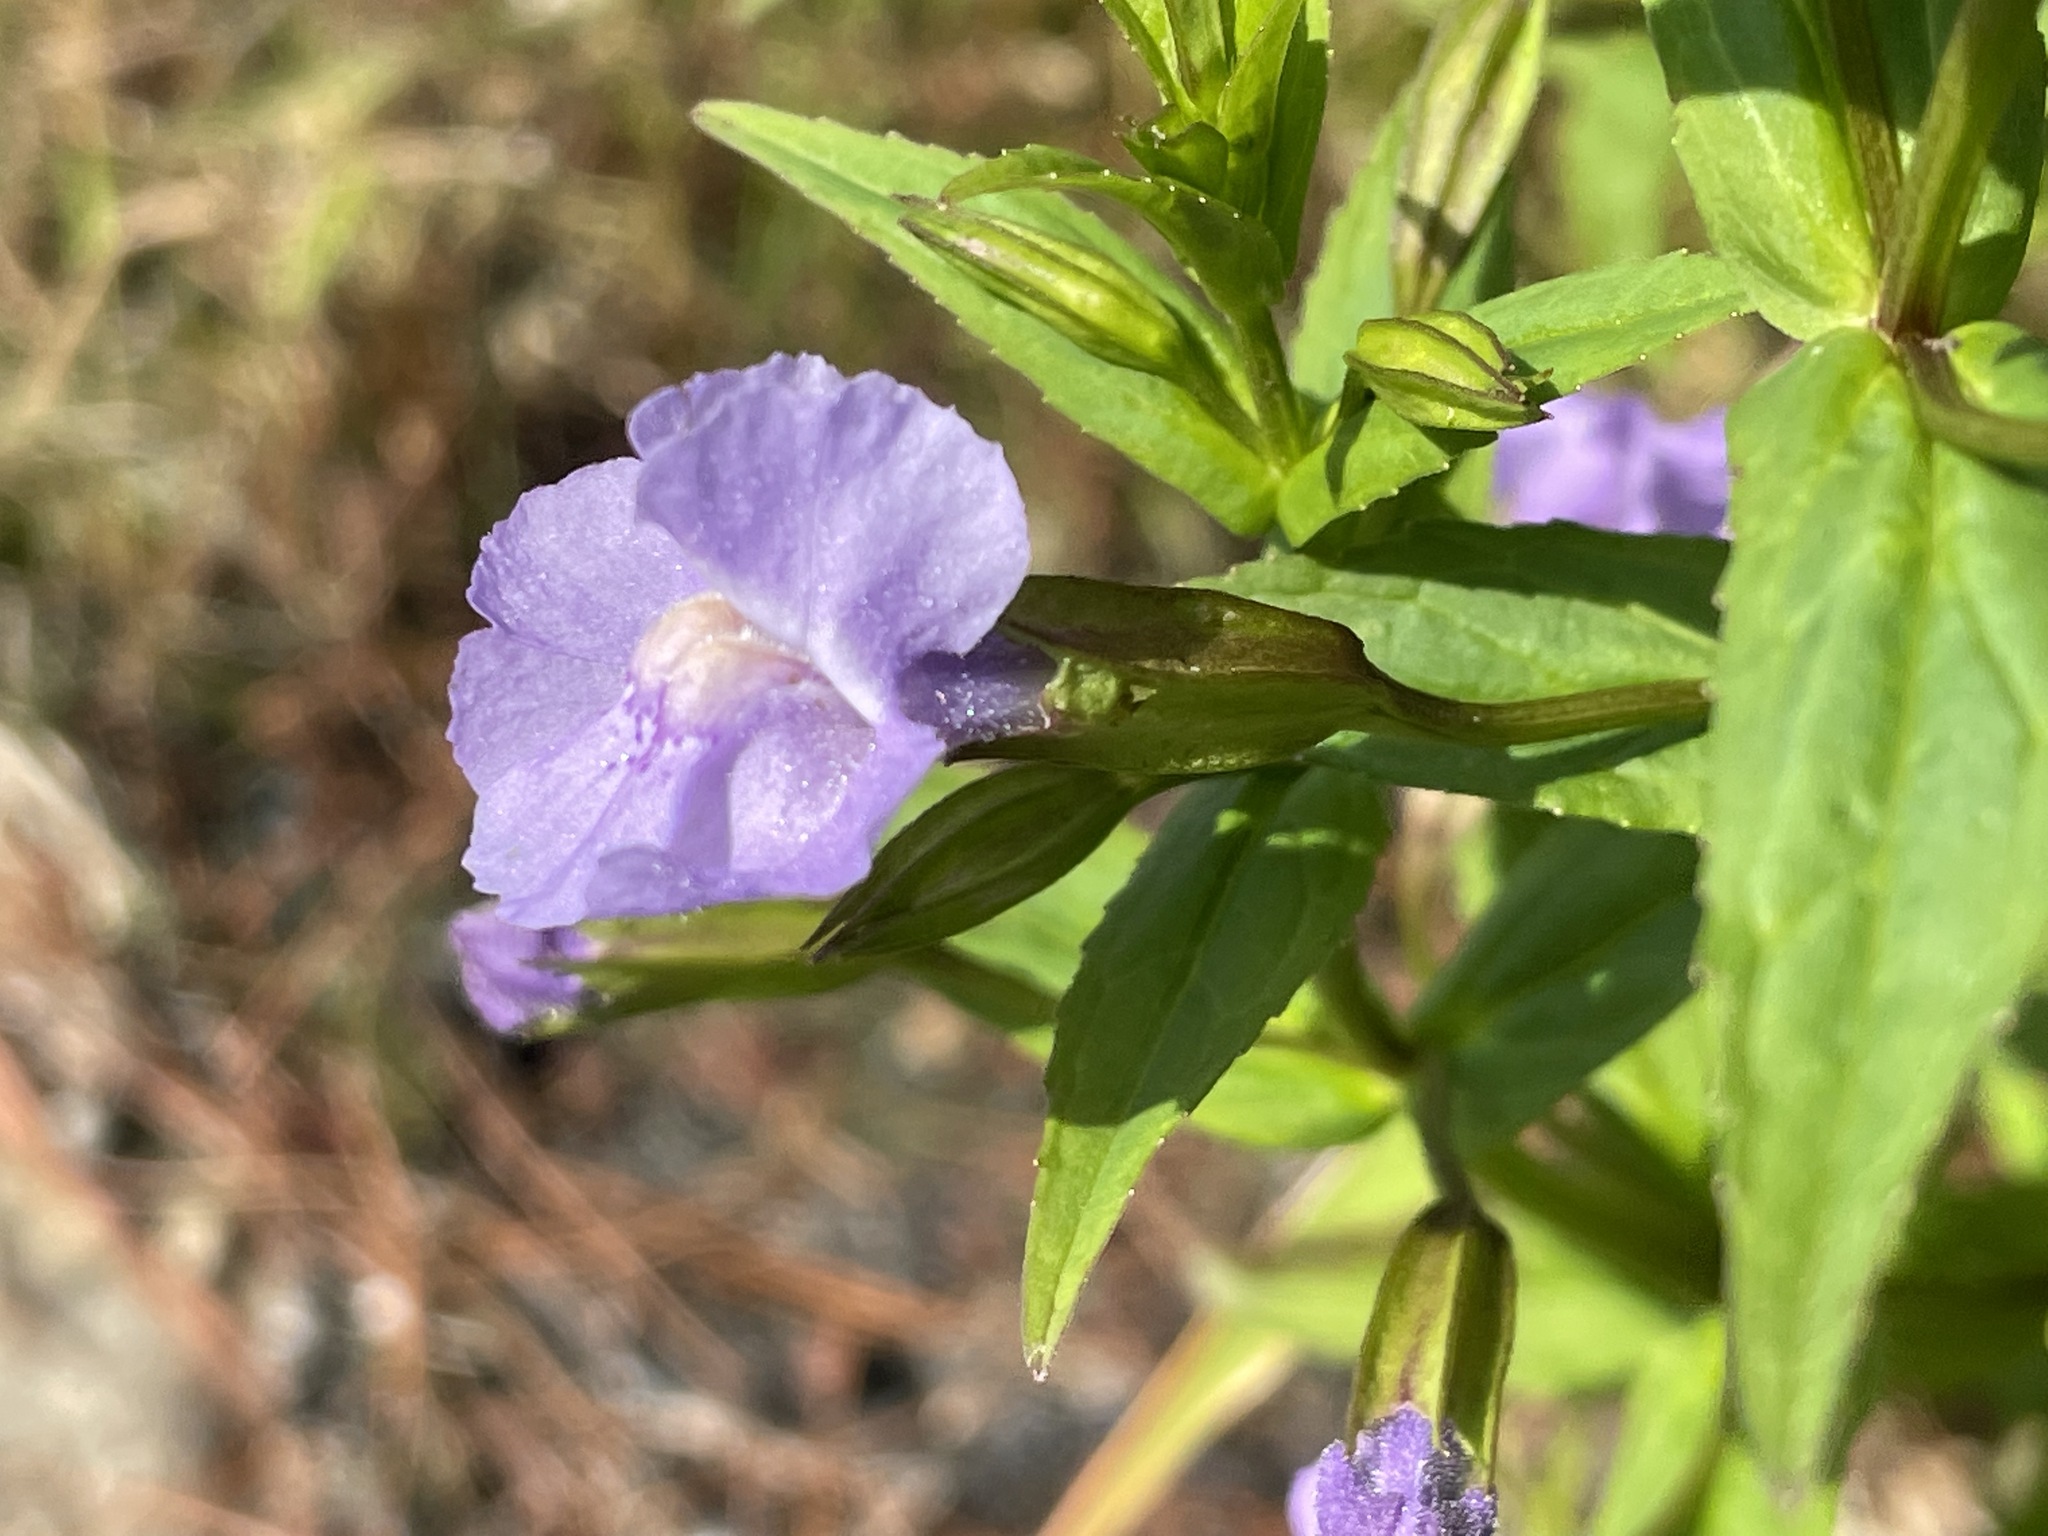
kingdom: Plantae
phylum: Tracheophyta
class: Magnoliopsida
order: Lamiales
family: Phrymaceae
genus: Mimulus
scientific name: Mimulus ringens
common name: Allegheny monkeyflower
